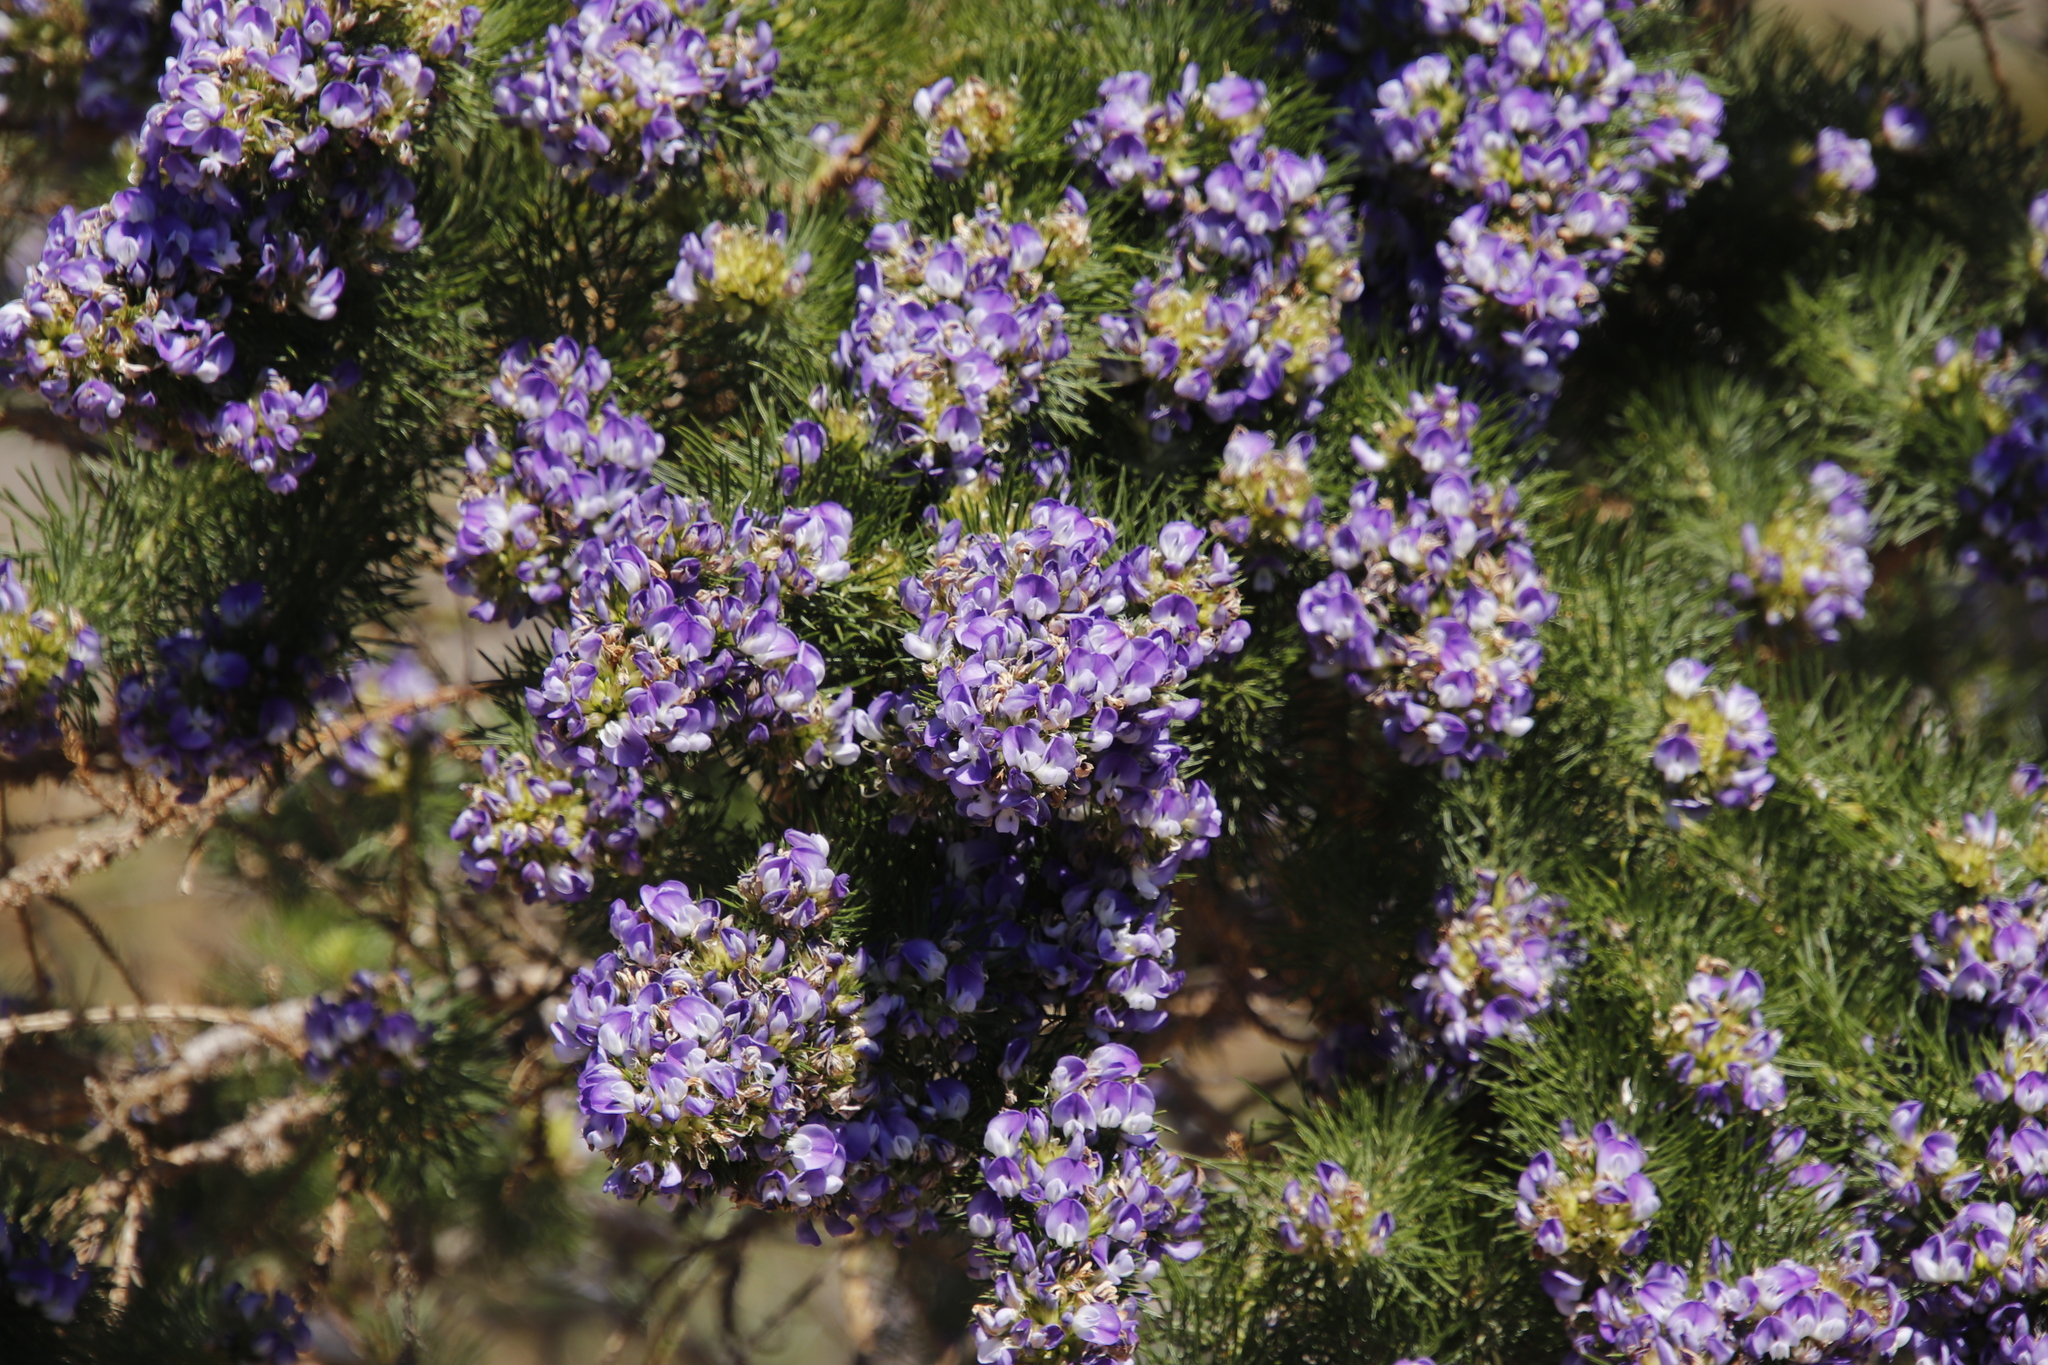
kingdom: Plantae
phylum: Tracheophyta
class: Magnoliopsida
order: Fabales
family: Fabaceae
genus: Psoralea
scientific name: Psoralea pinnata
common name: African scurfpea
